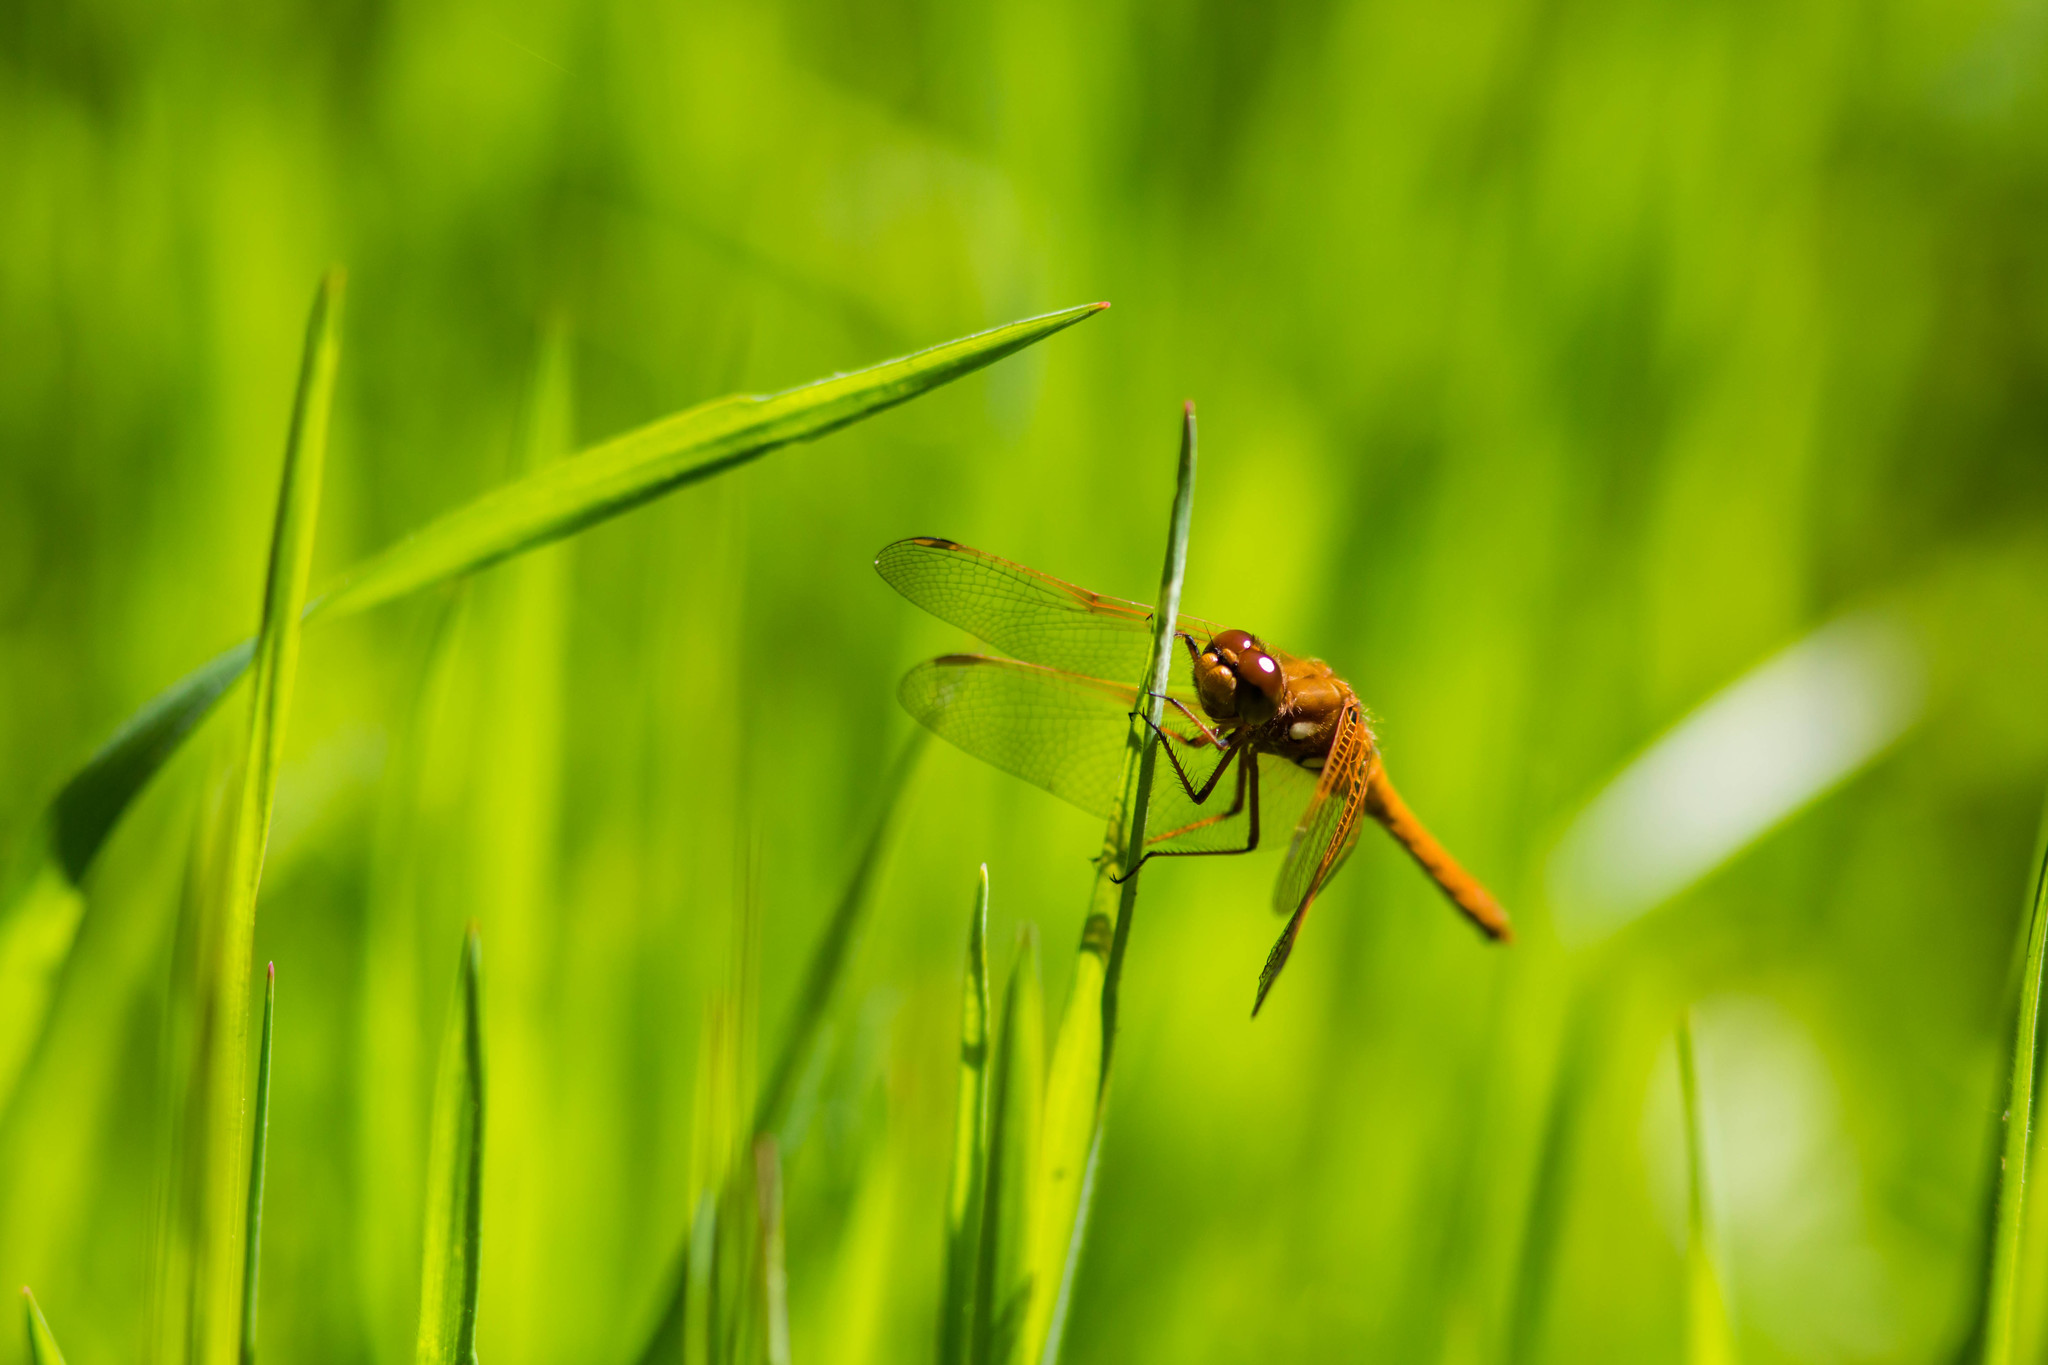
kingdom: Animalia
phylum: Arthropoda
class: Insecta
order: Odonata
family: Libellulidae
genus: Sympetrum
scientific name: Sympetrum illotum
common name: Cardinal meadowhawk
